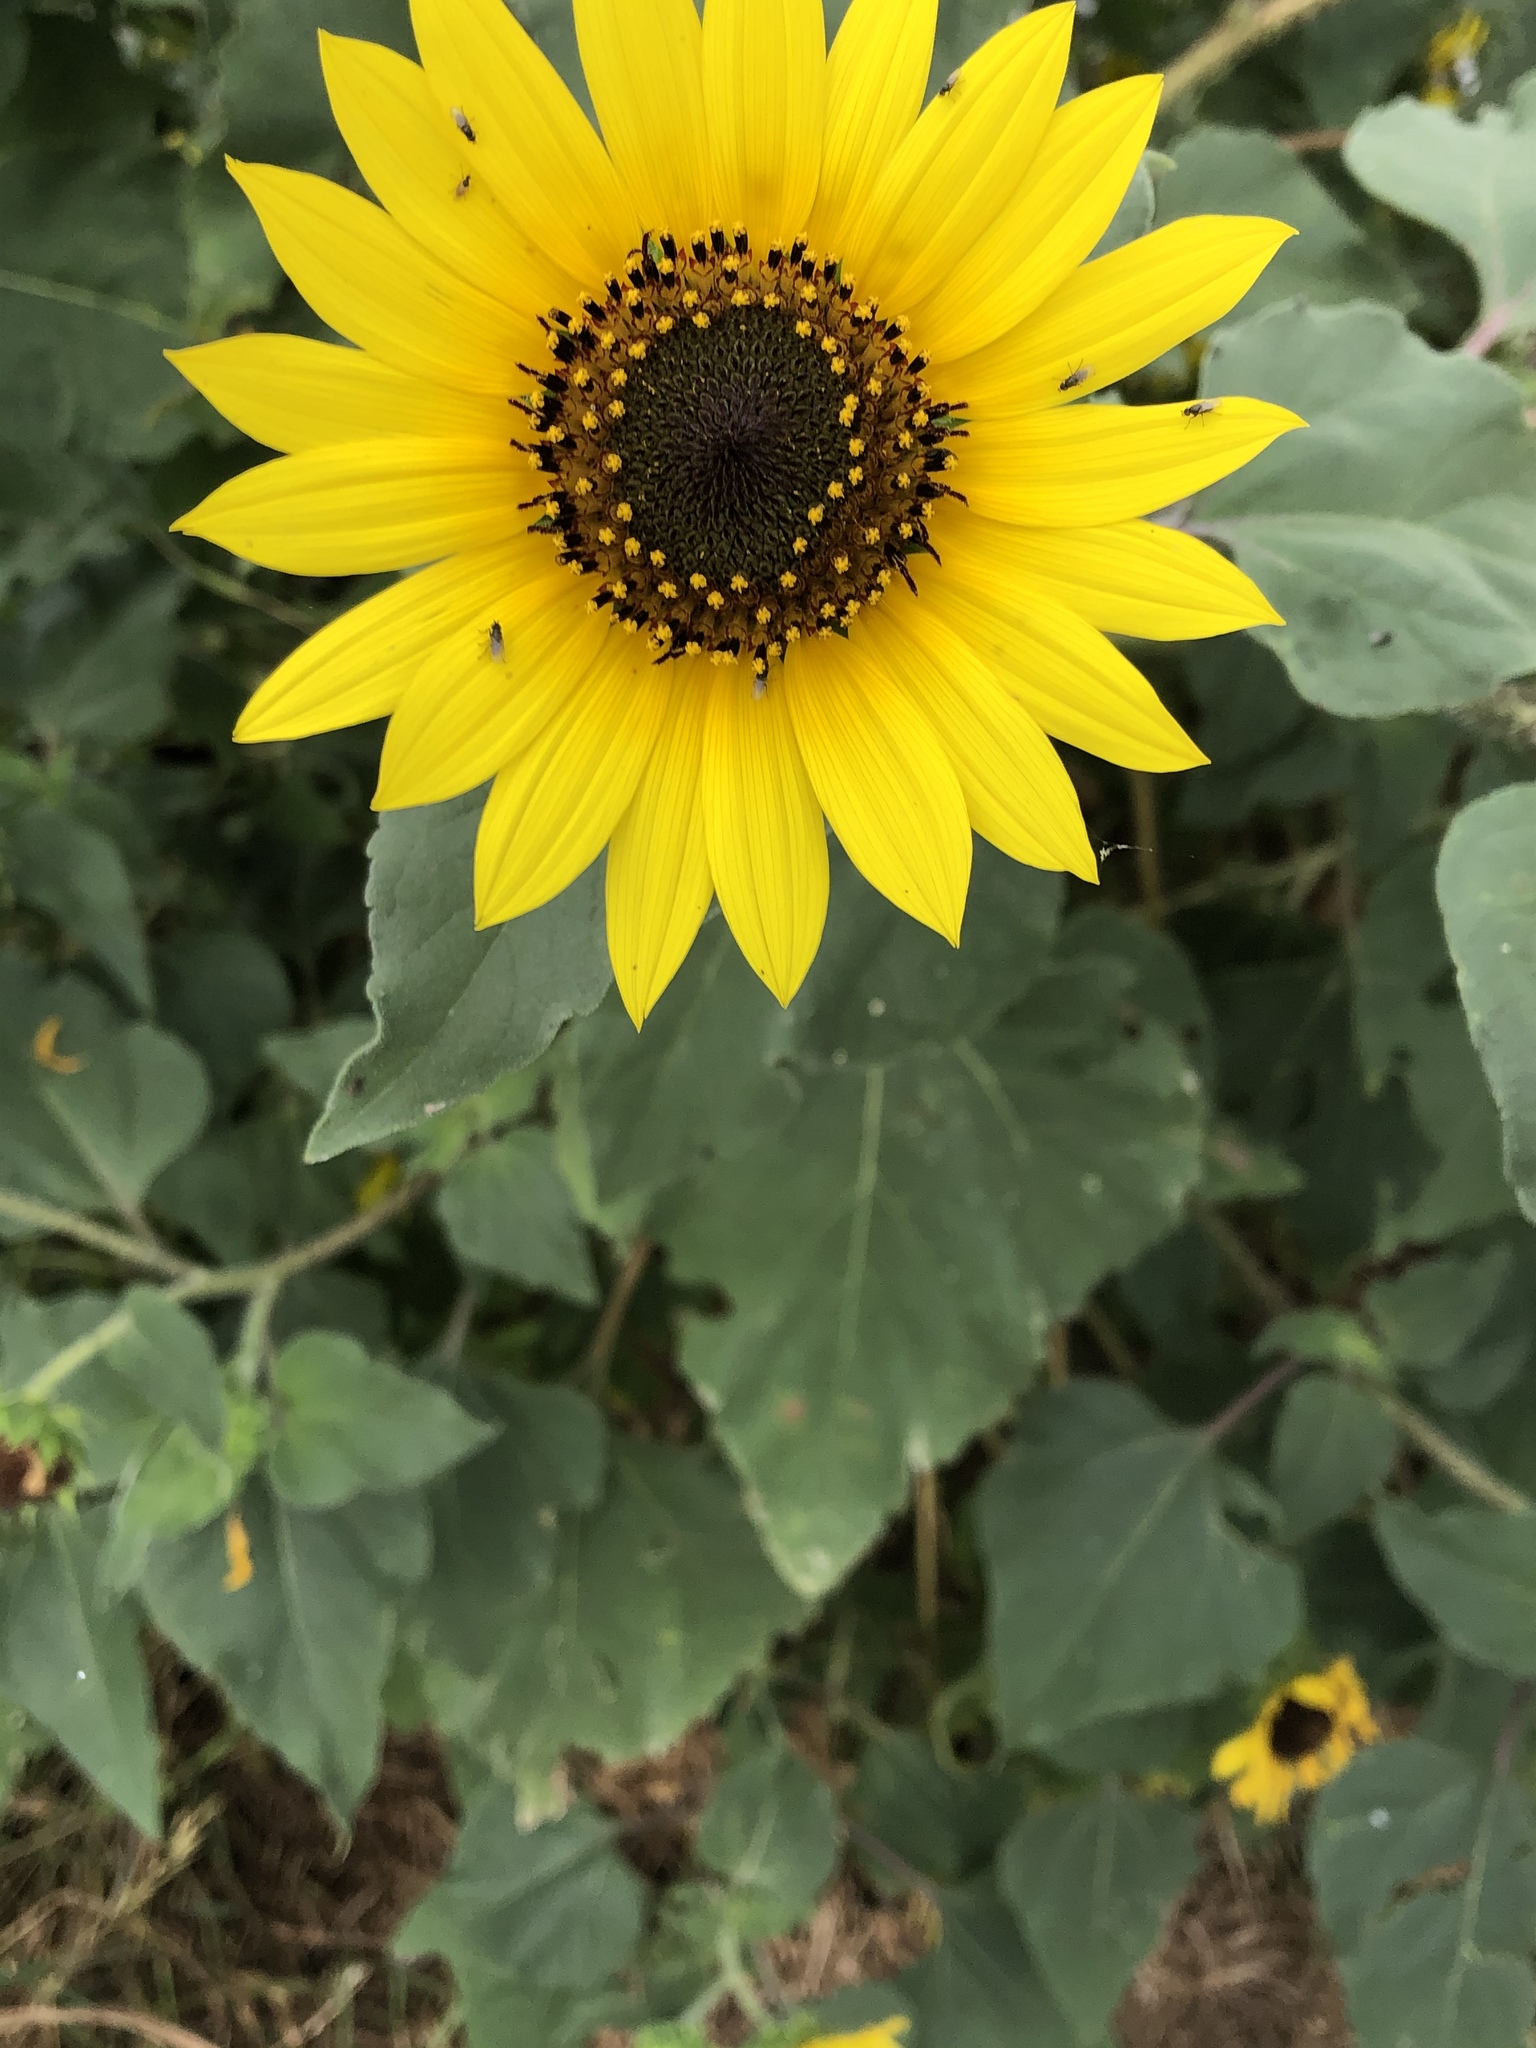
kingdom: Plantae
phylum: Tracheophyta
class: Magnoliopsida
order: Asterales
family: Asteraceae
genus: Helianthus
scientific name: Helianthus annuus
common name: Sunflower
